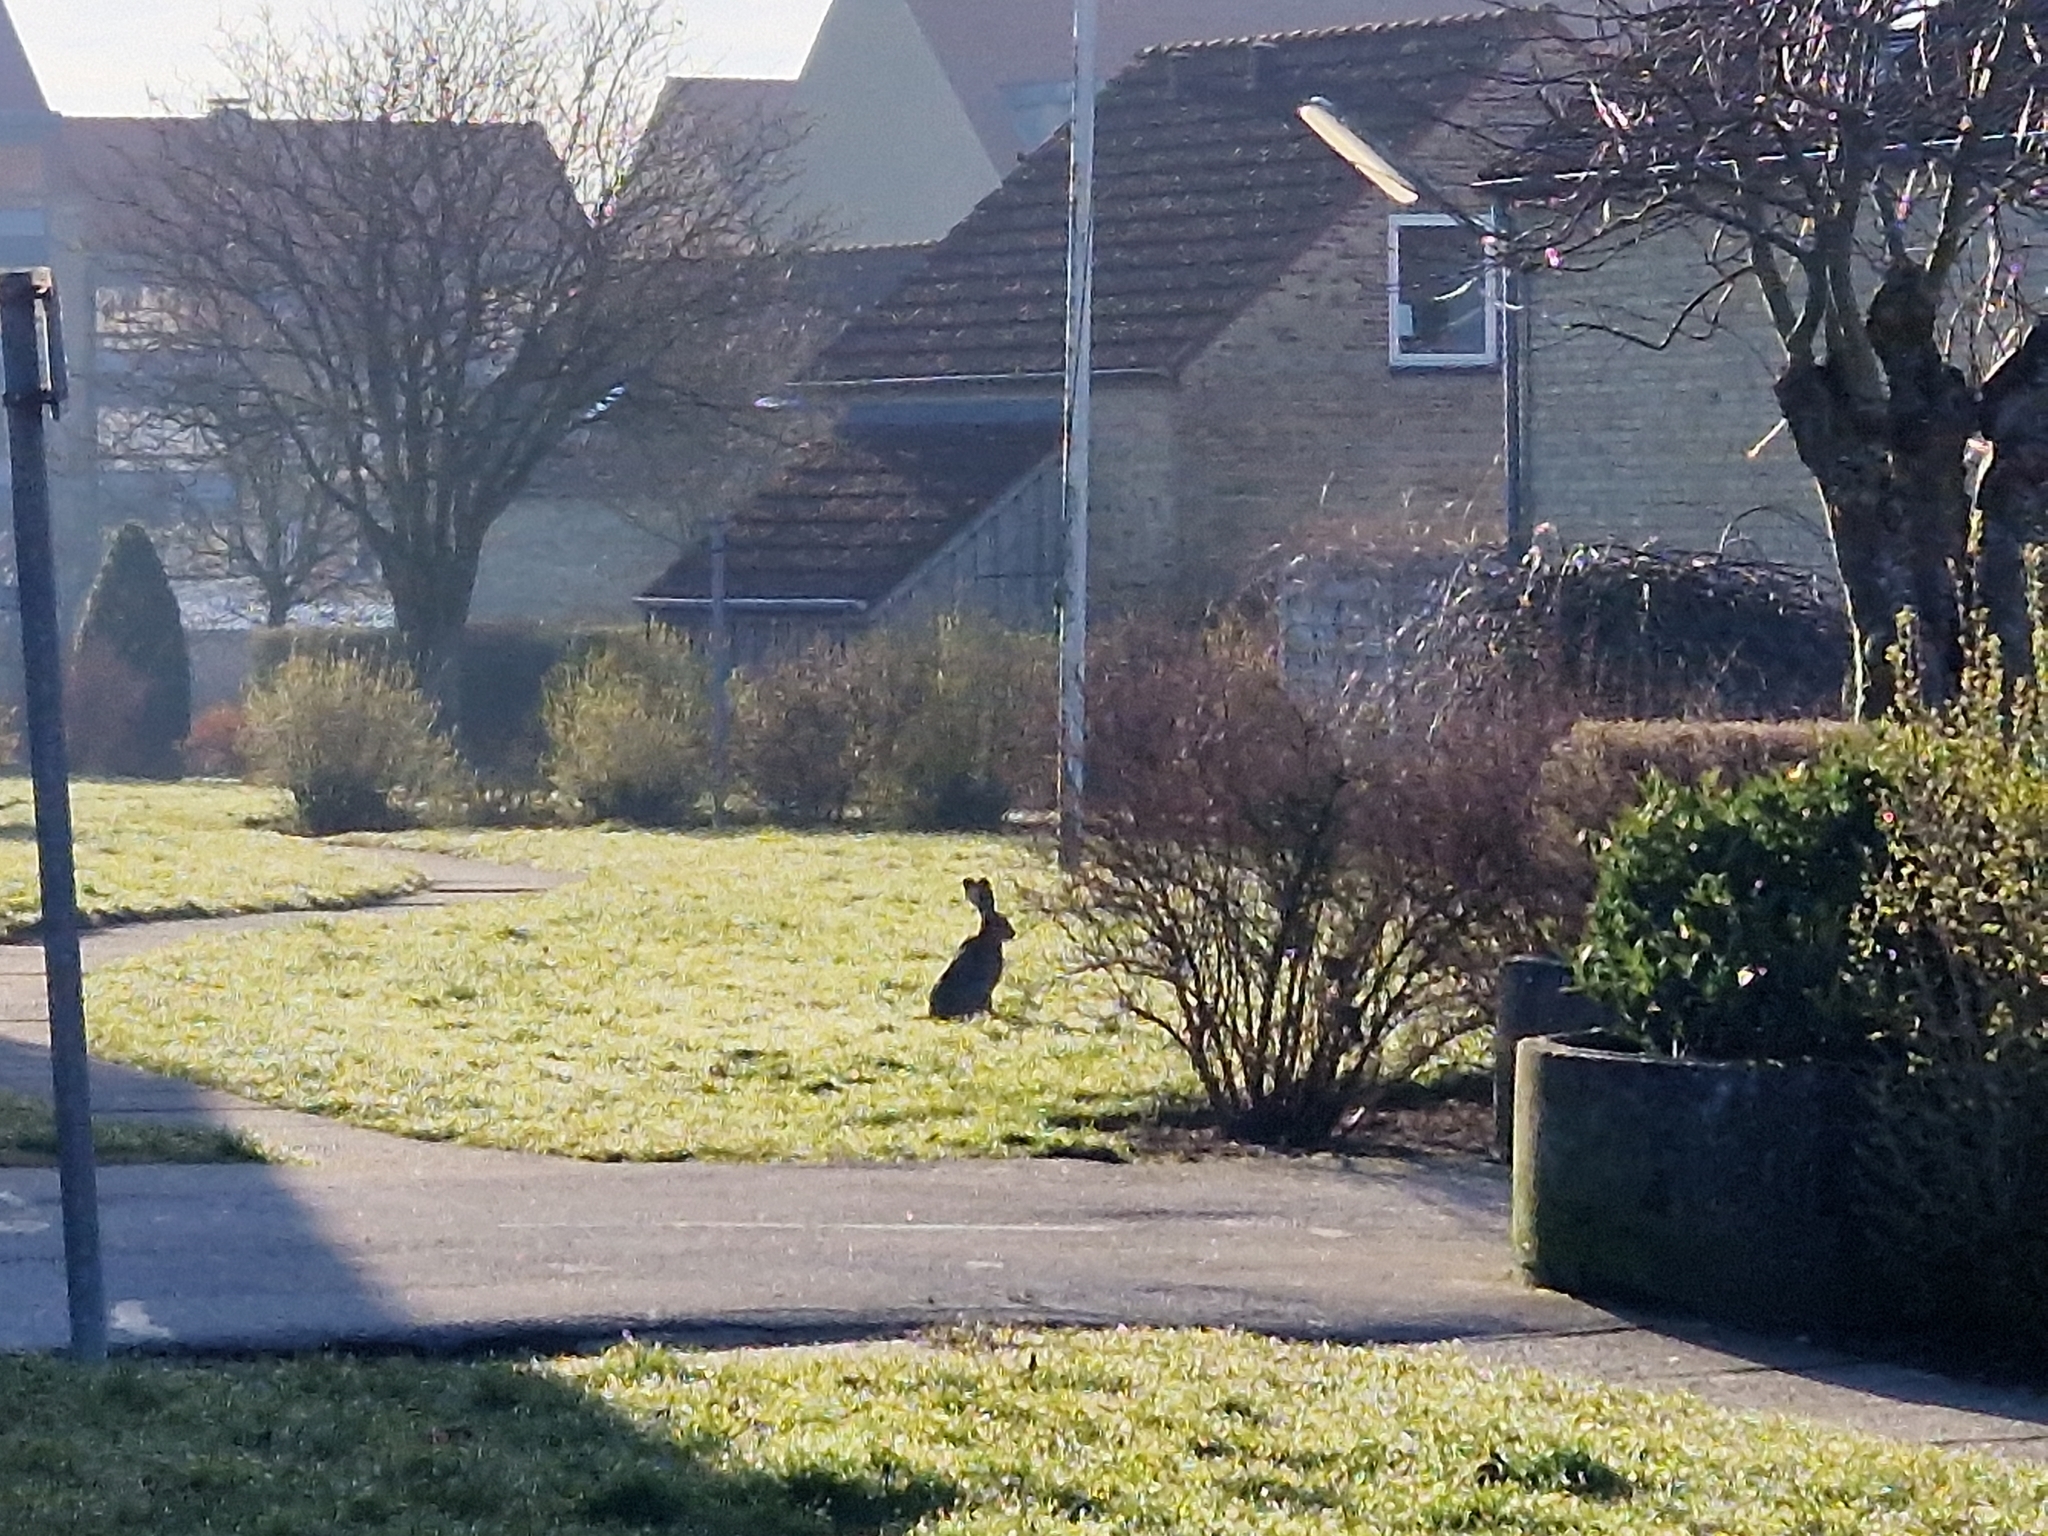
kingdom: Animalia
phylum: Chordata
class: Mammalia
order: Lagomorpha
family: Leporidae
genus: Lepus
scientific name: Lepus europaeus
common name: European hare
